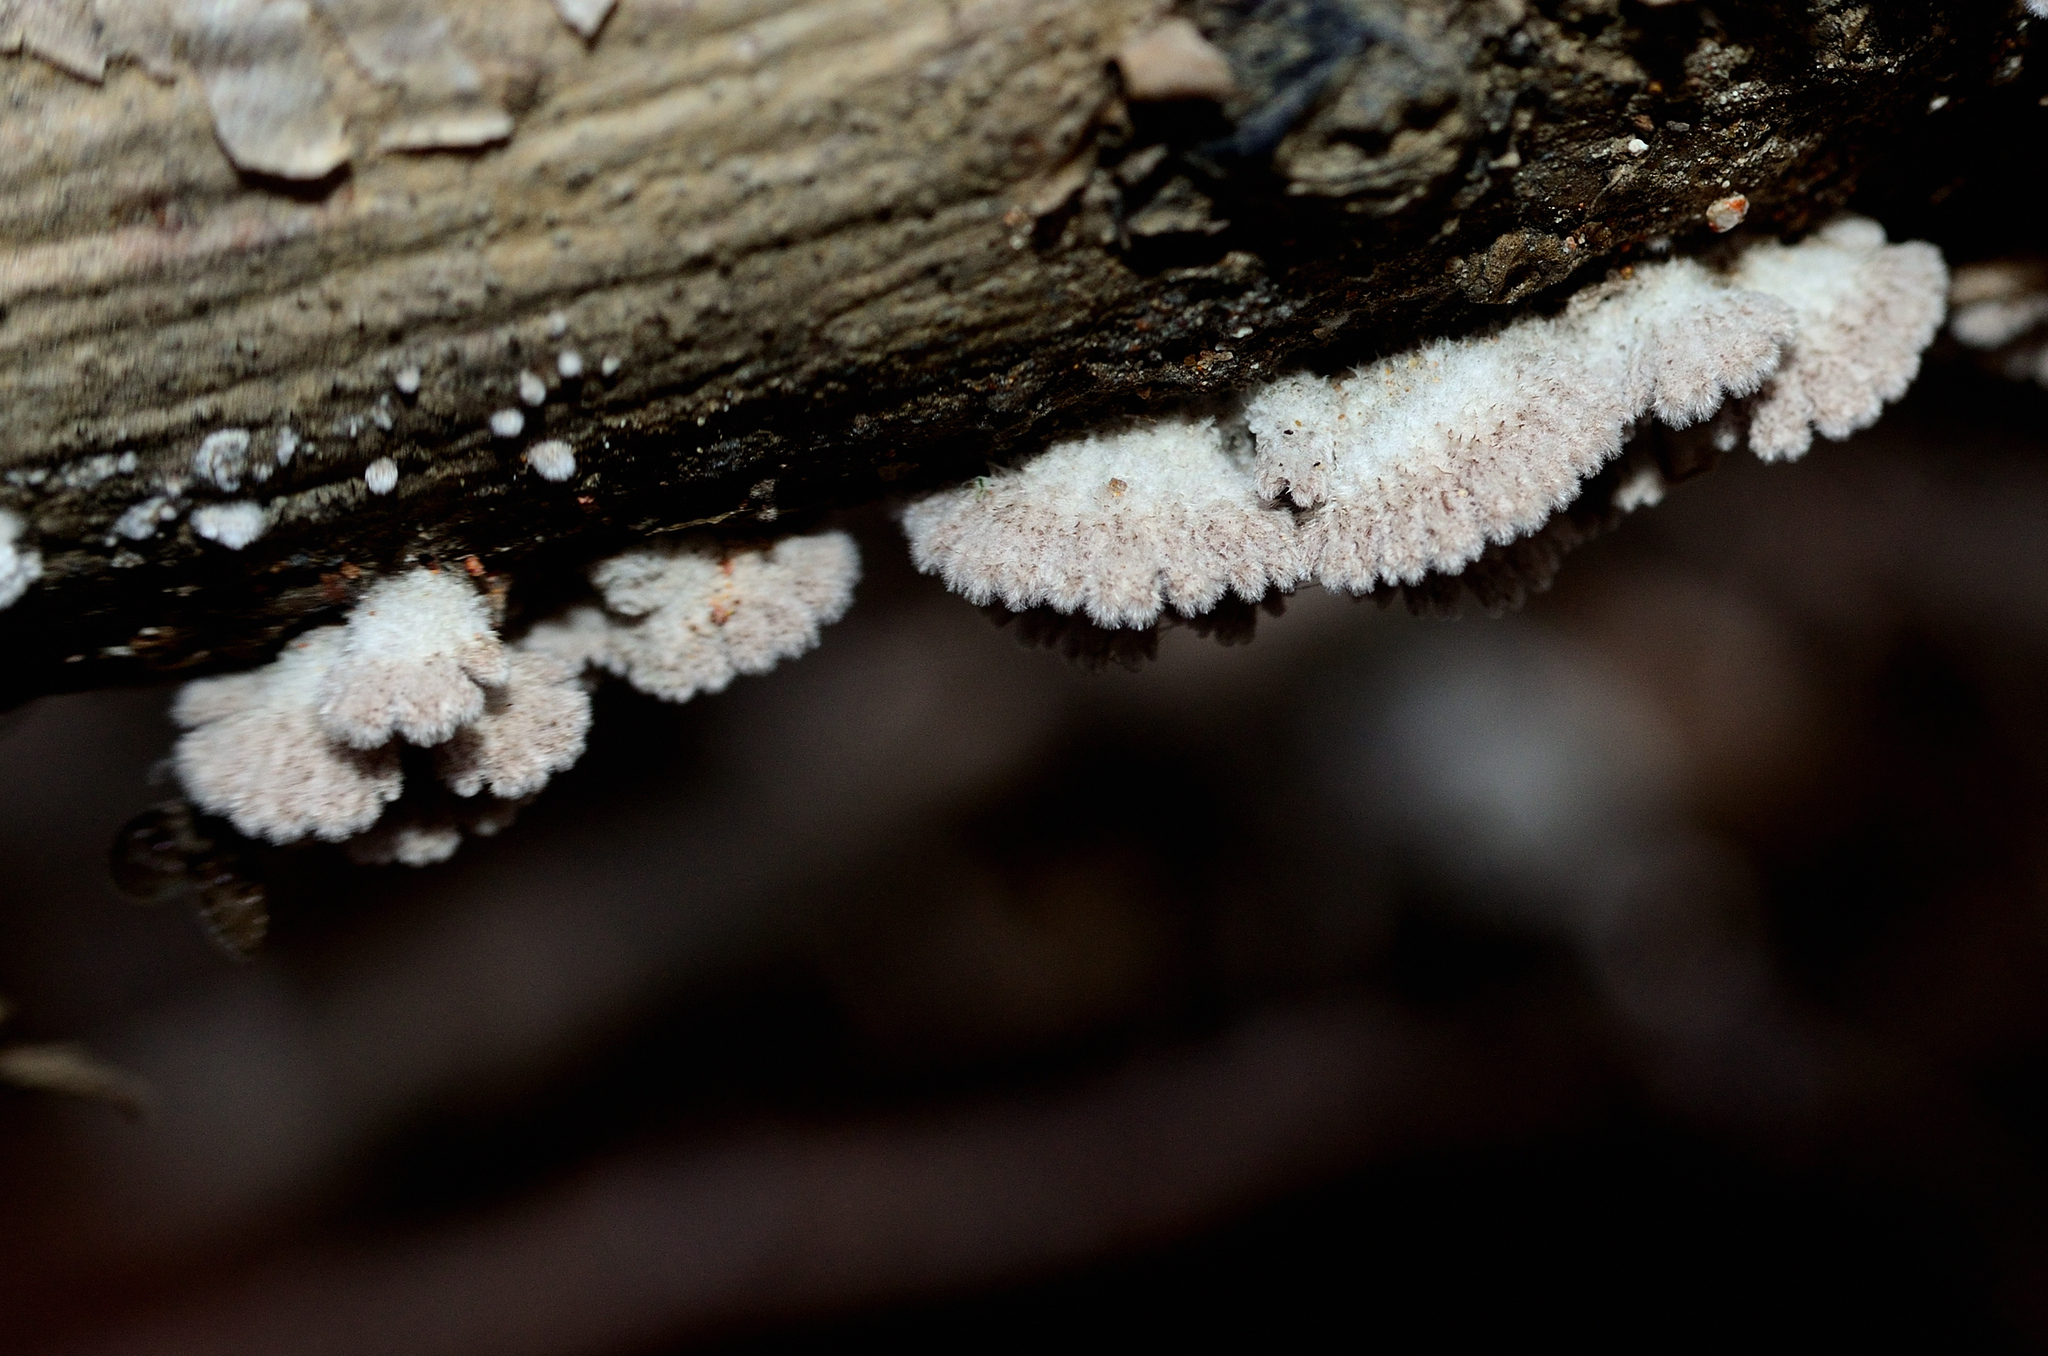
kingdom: Fungi
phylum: Basidiomycota
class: Agaricomycetes
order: Agaricales
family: Schizophyllaceae
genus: Schizophyllum
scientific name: Schizophyllum commune
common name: Common porecrust
